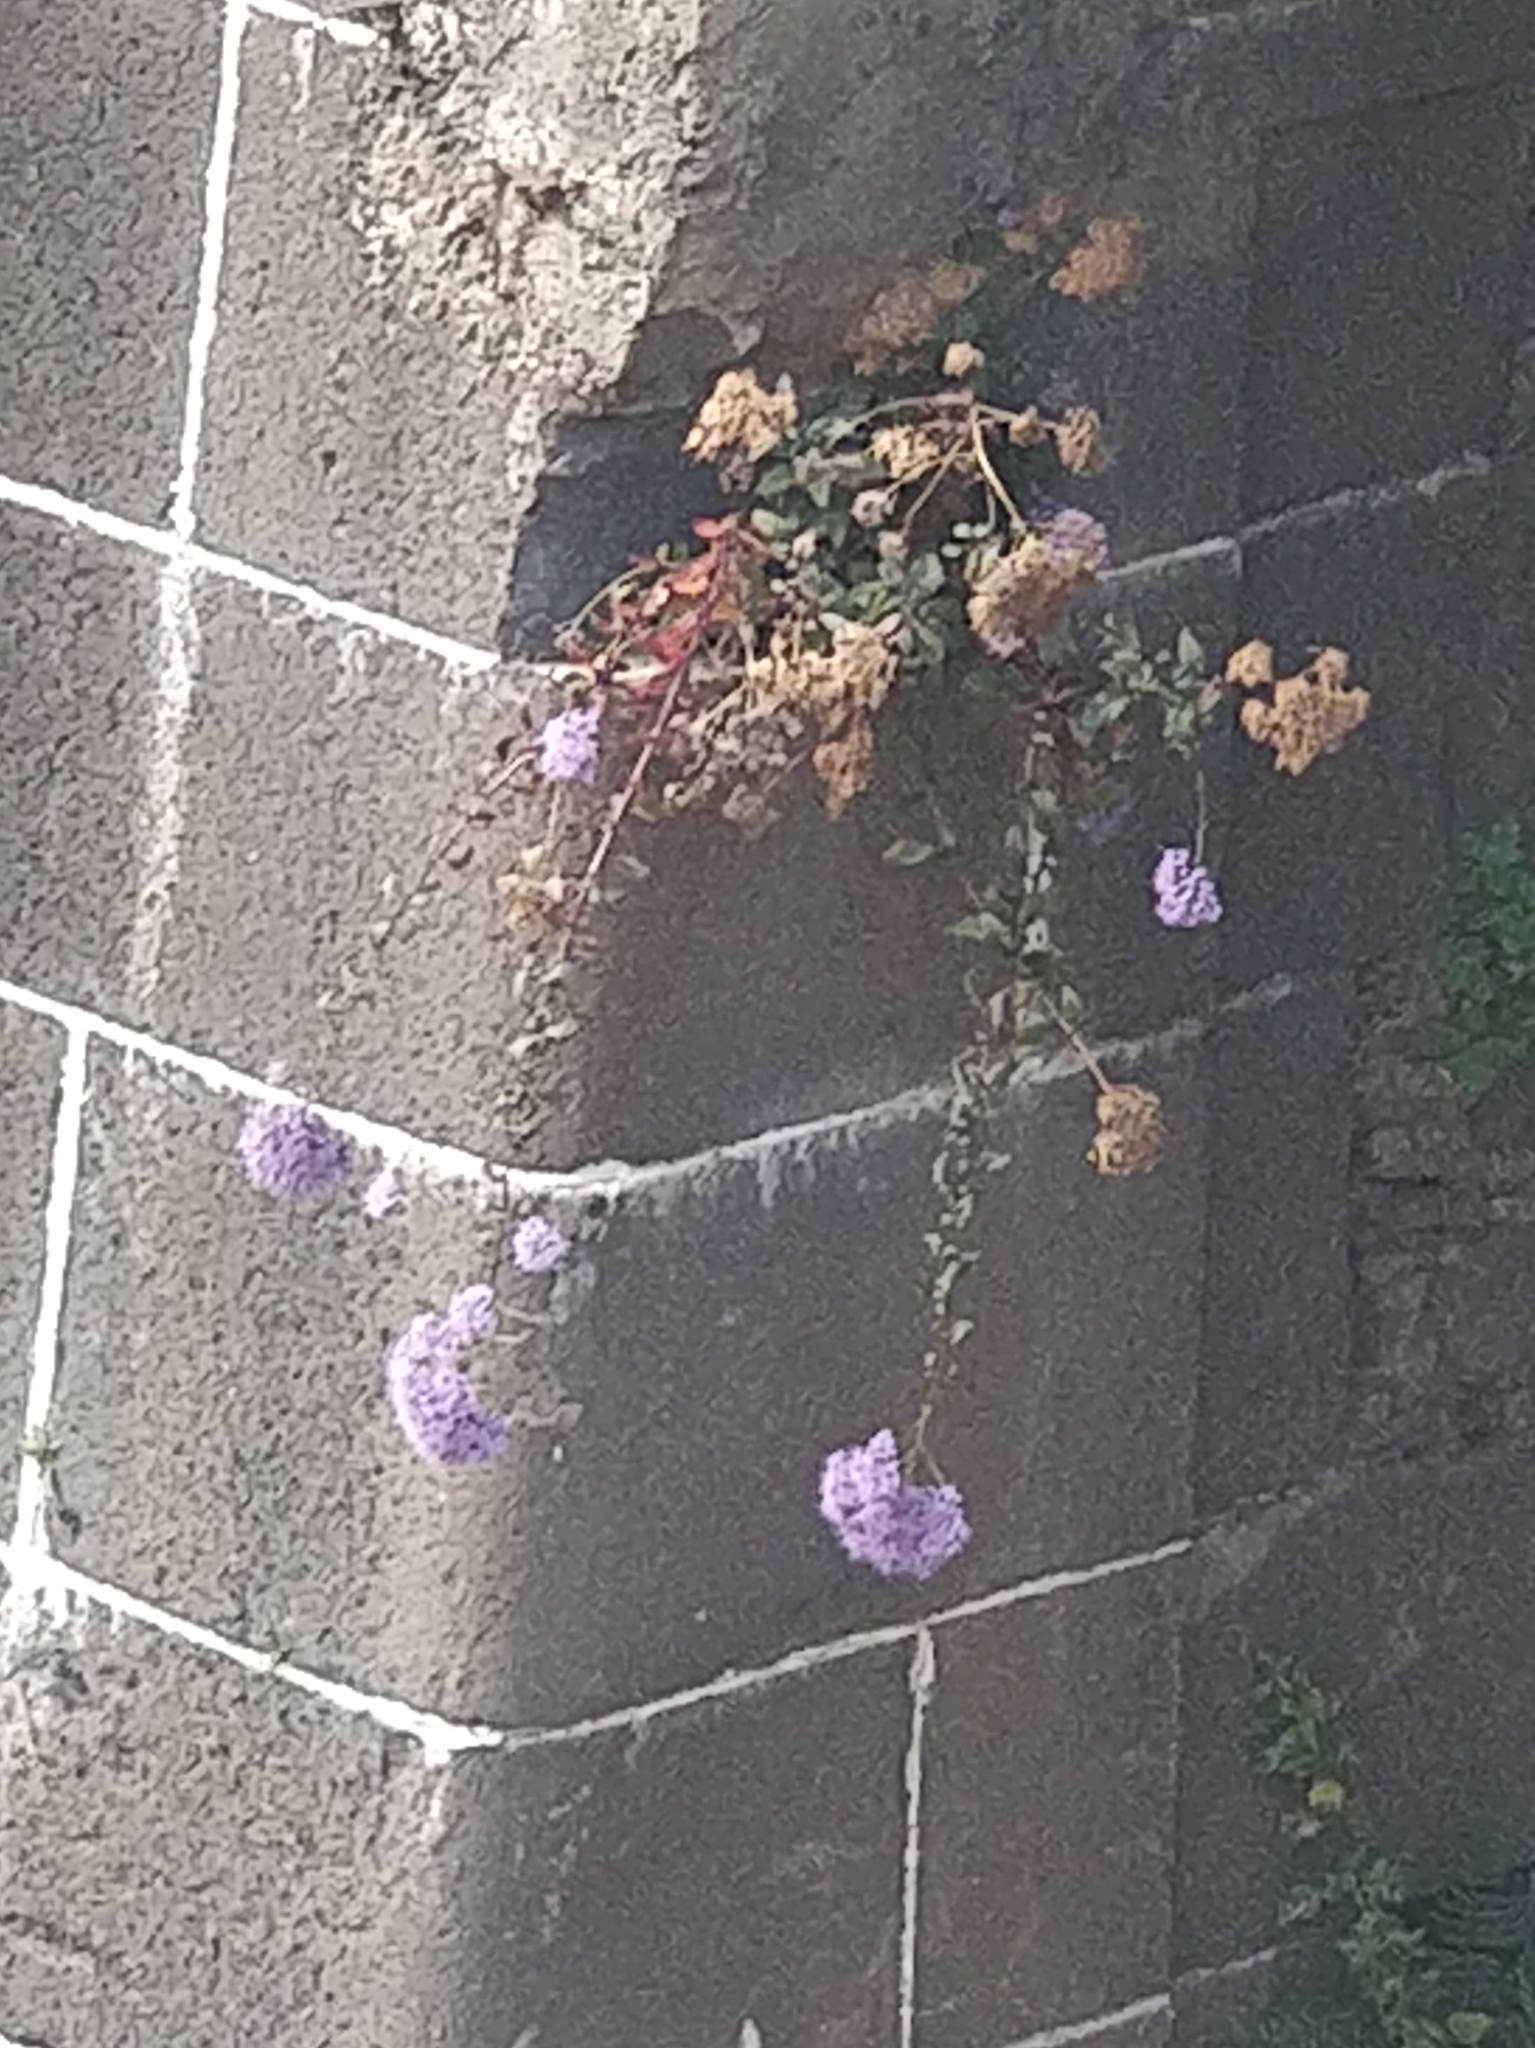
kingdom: Plantae
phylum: Tracheophyta
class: Magnoliopsida
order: Asterales
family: Campanulaceae
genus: Trachelium
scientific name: Trachelium caeruleum
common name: Throatwort
